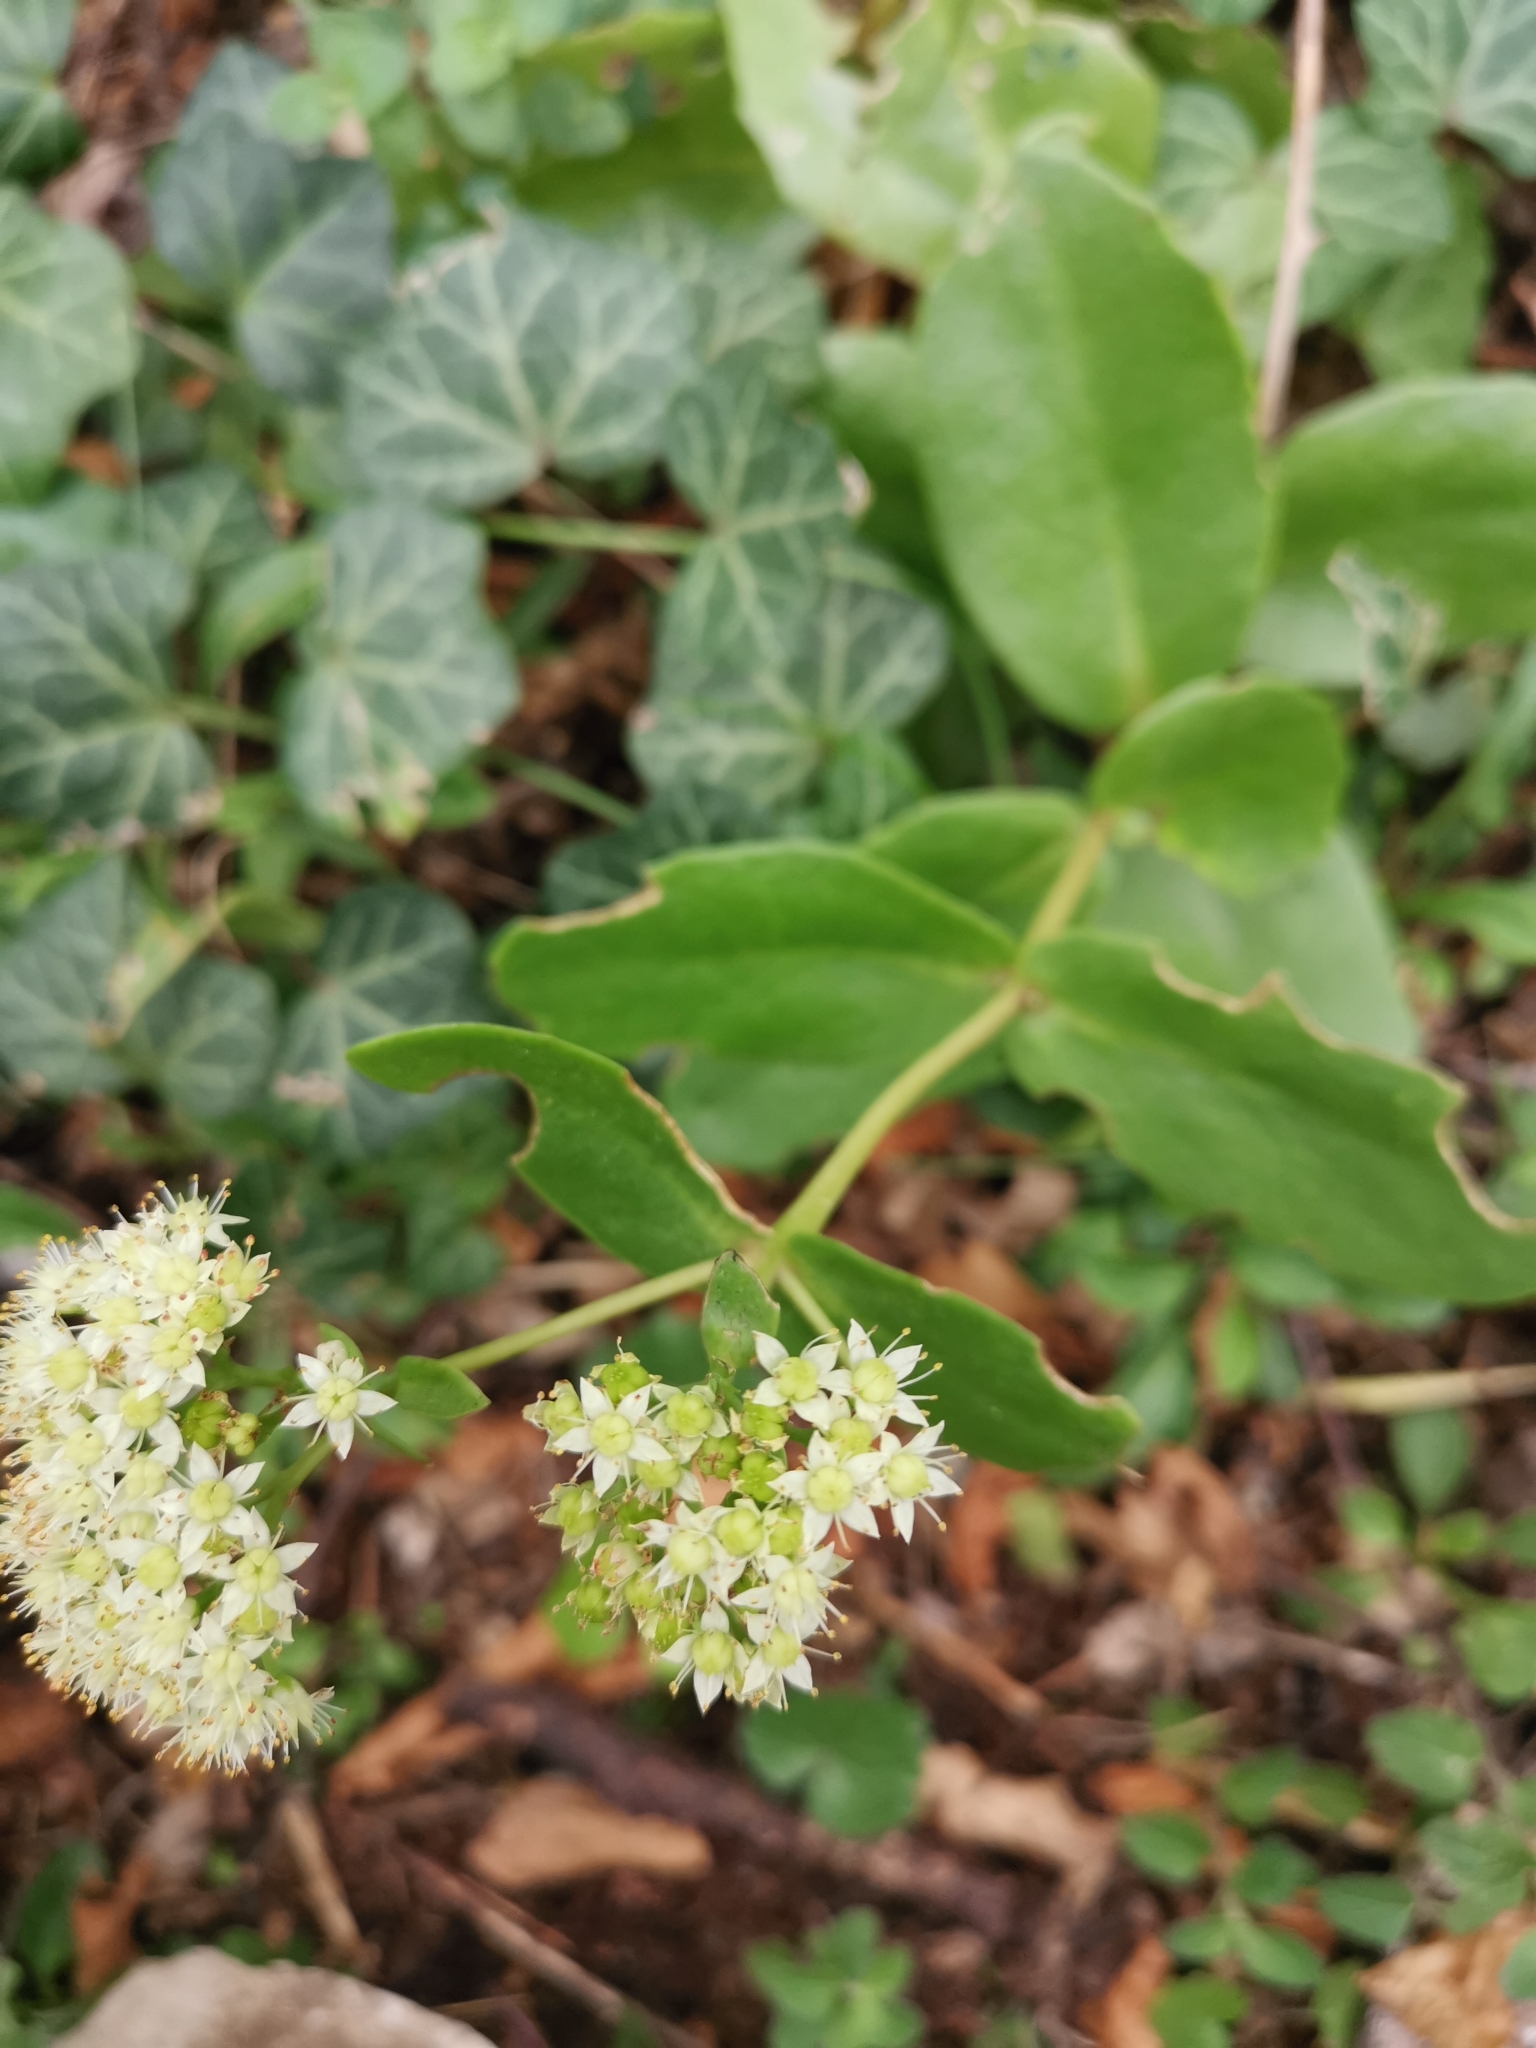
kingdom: Plantae
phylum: Tracheophyta
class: Magnoliopsida
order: Saxifragales
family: Crassulaceae
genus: Hylotelephium
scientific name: Hylotelephium maximum
